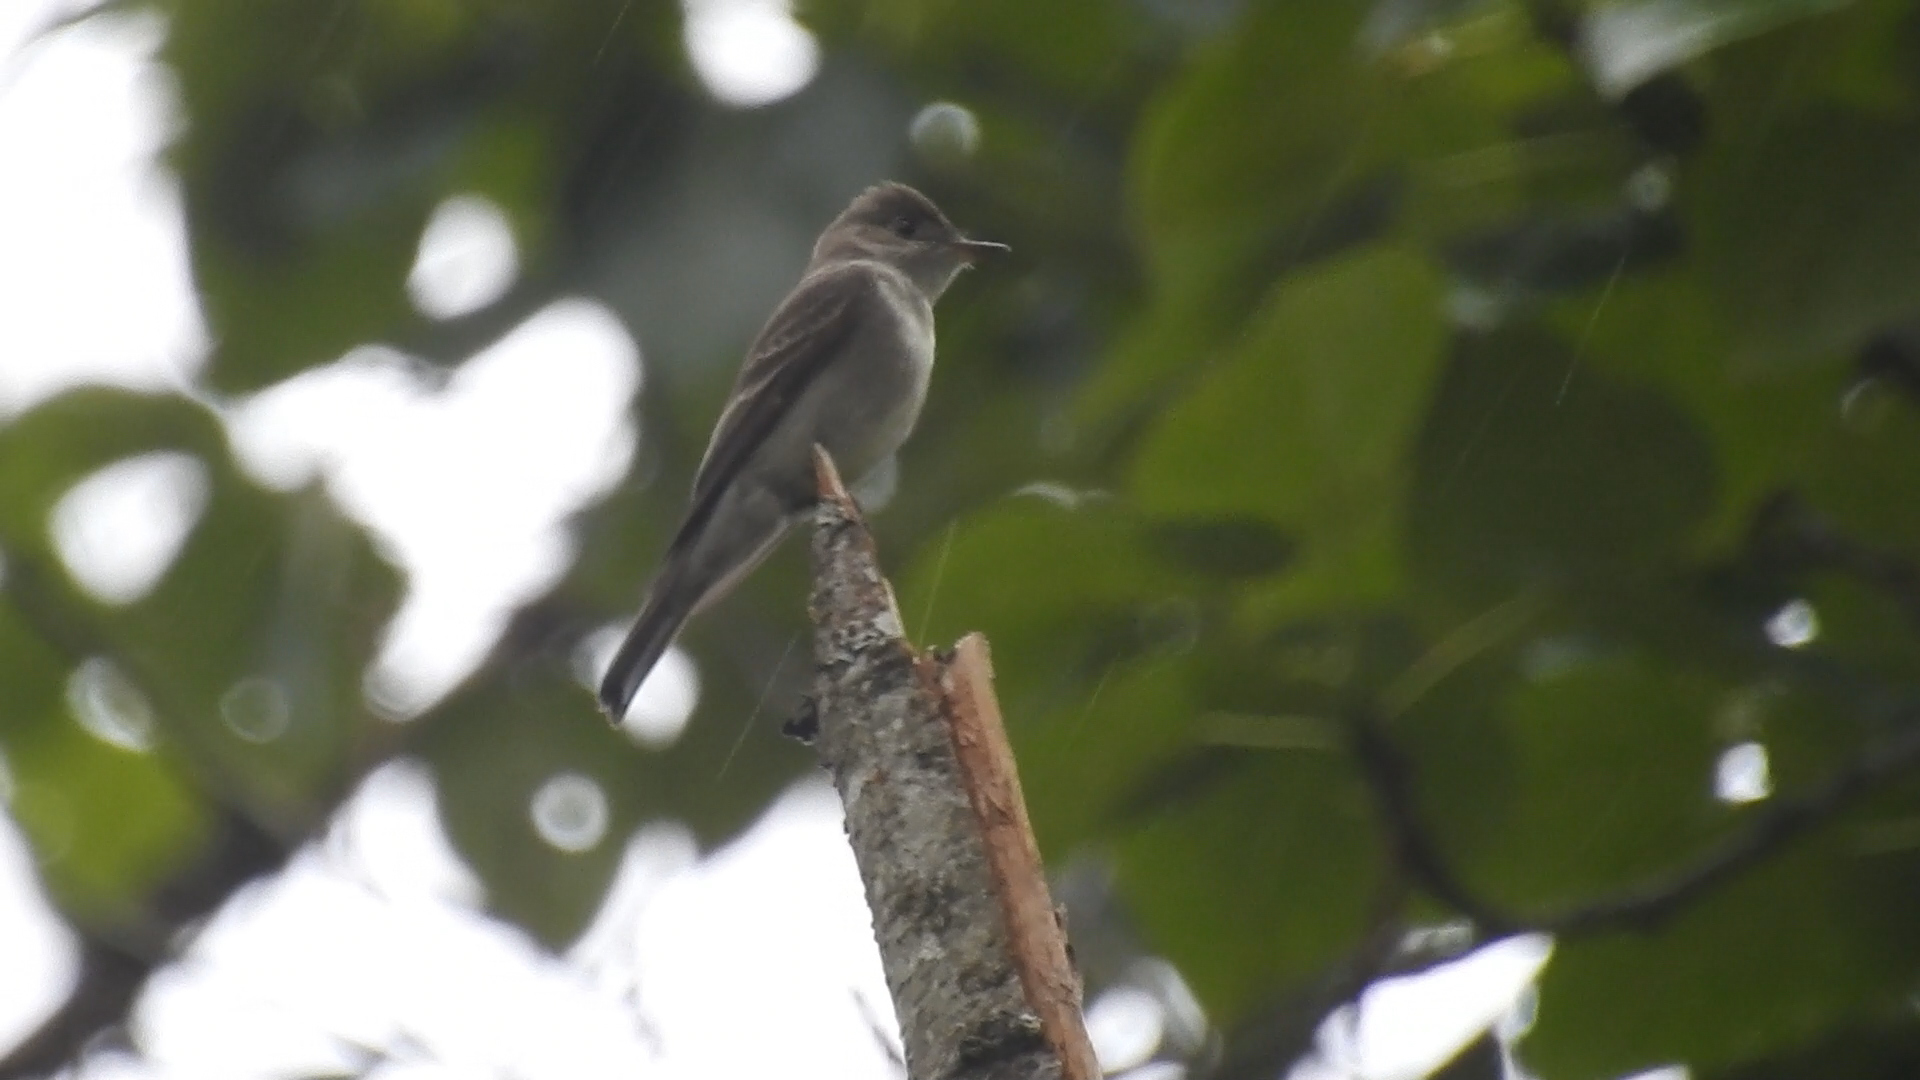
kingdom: Animalia
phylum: Chordata
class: Aves
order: Passeriformes
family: Tyrannidae
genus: Contopus
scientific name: Contopus sordidulus
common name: Western wood-pewee
